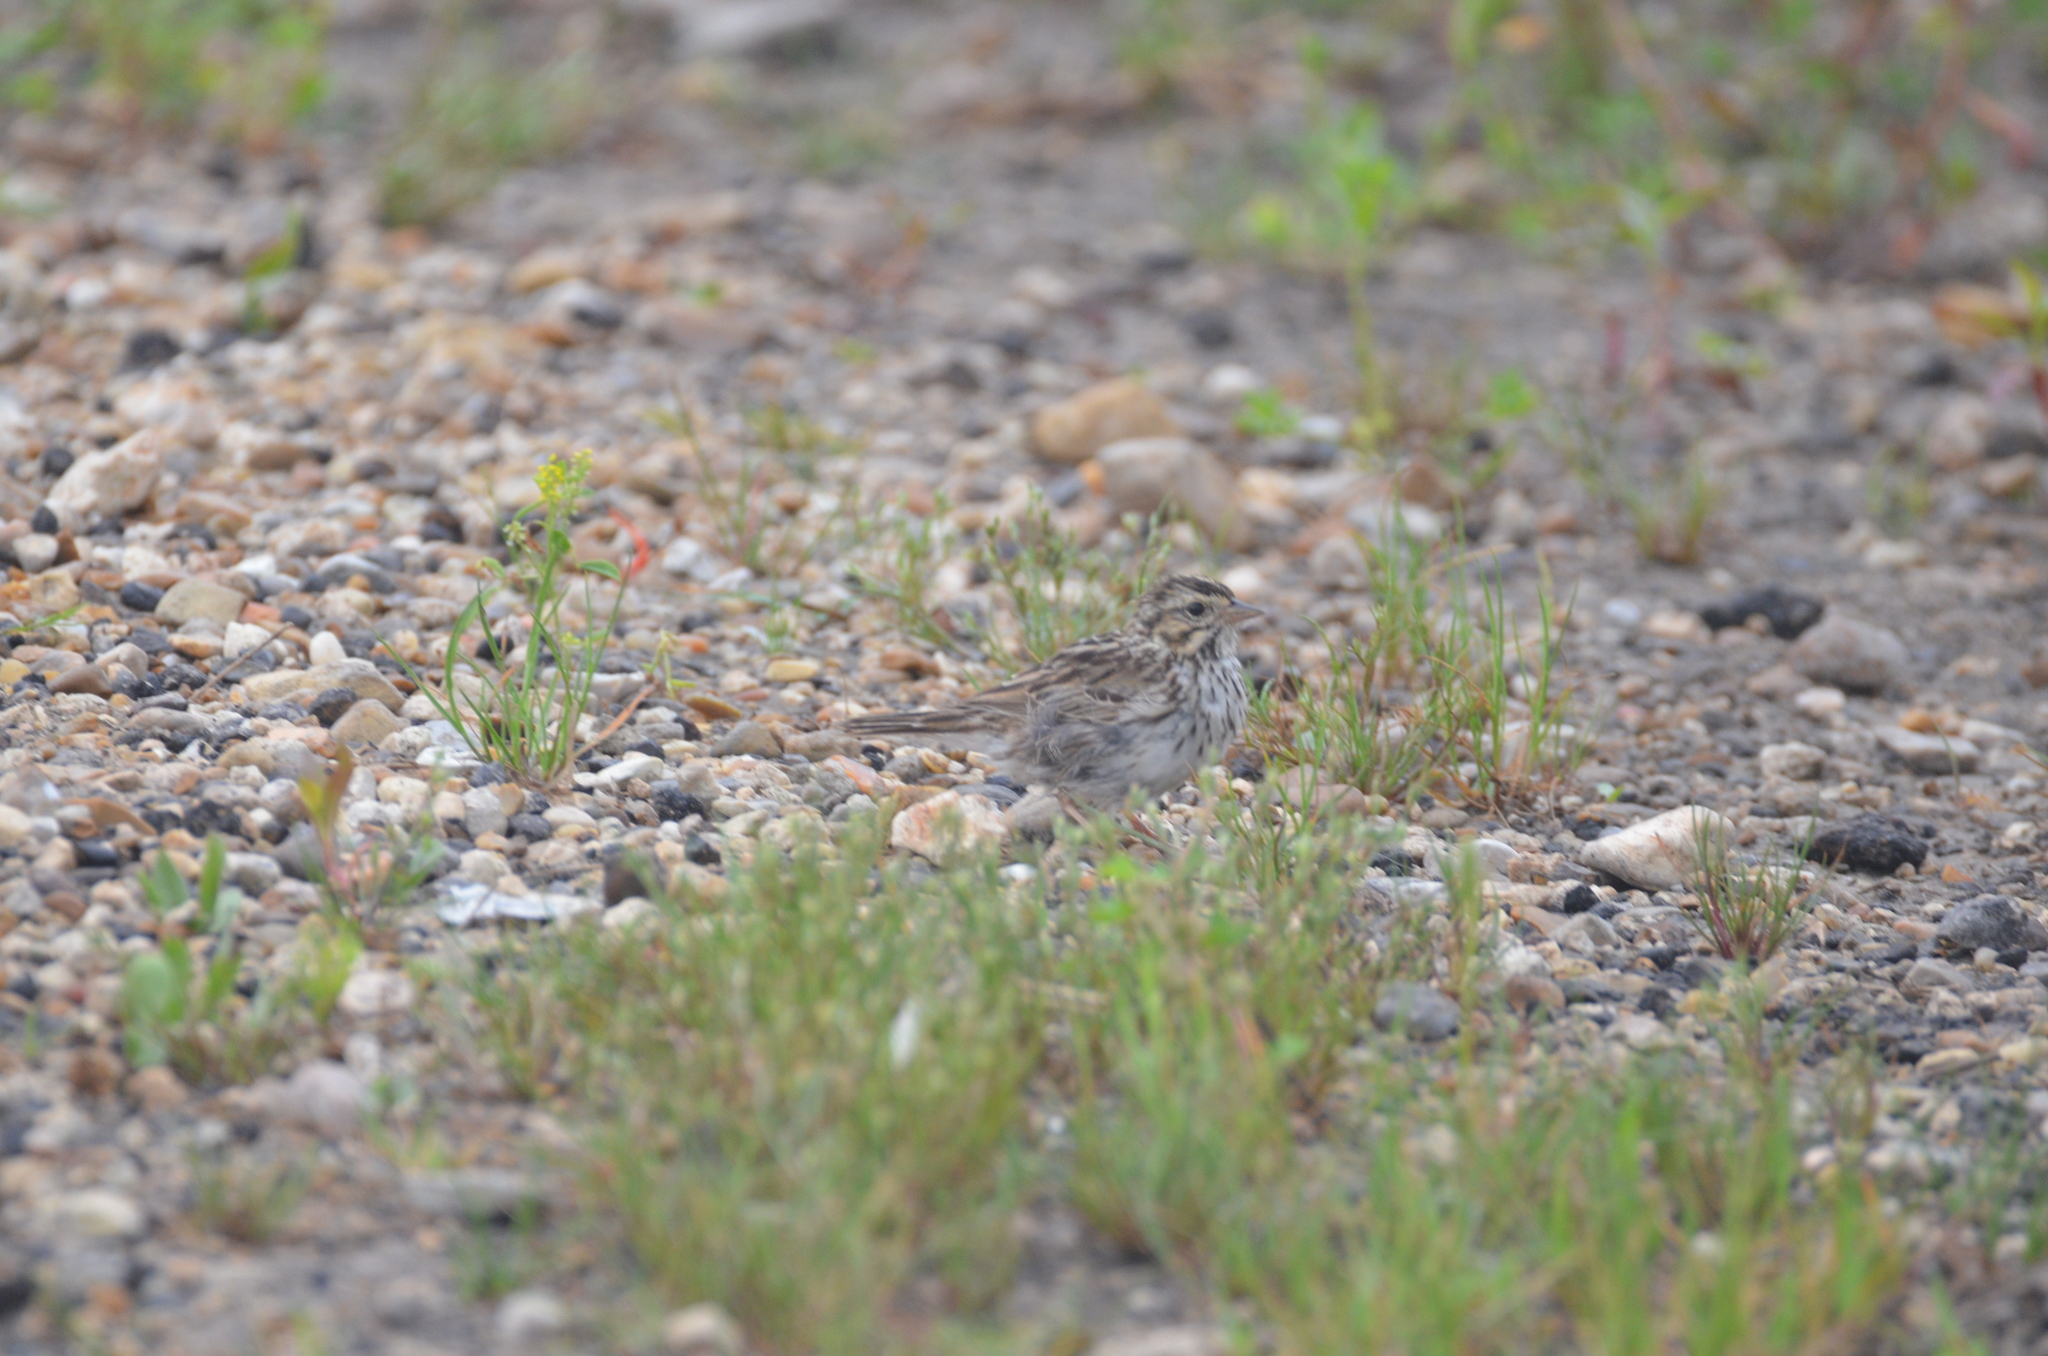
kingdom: Animalia
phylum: Chordata
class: Aves
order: Passeriformes
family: Passerellidae
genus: Passerculus
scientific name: Passerculus sandwichensis
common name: Savannah sparrow
